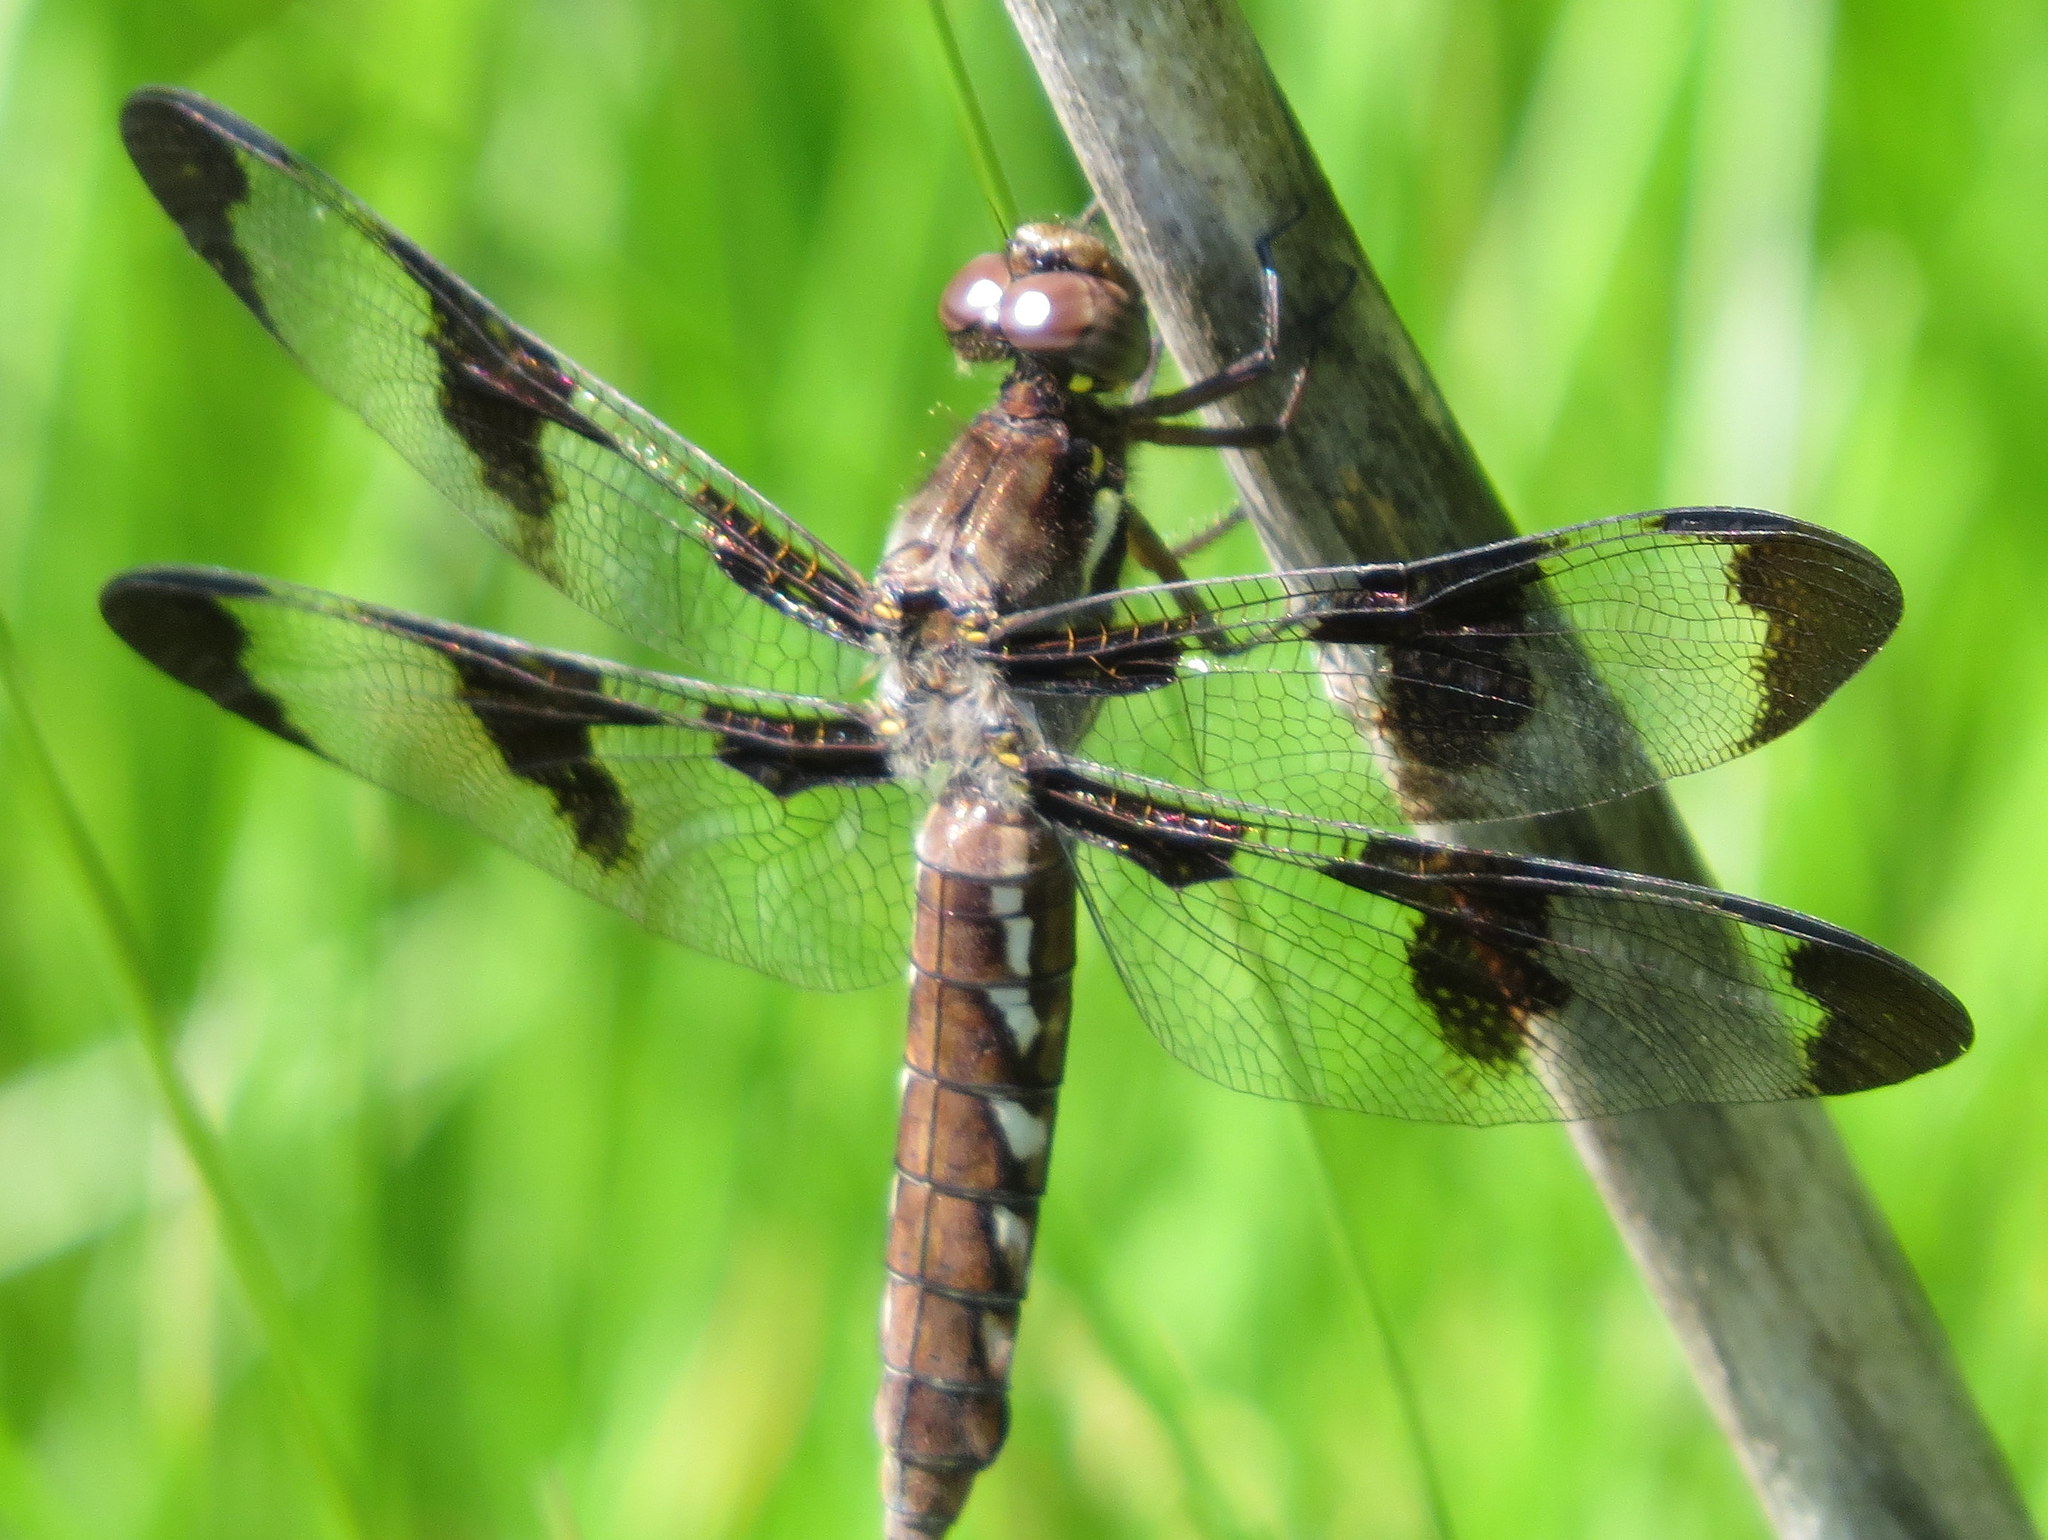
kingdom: Animalia
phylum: Arthropoda
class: Insecta
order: Odonata
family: Libellulidae
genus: Plathemis
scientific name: Plathemis lydia
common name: Common whitetail
